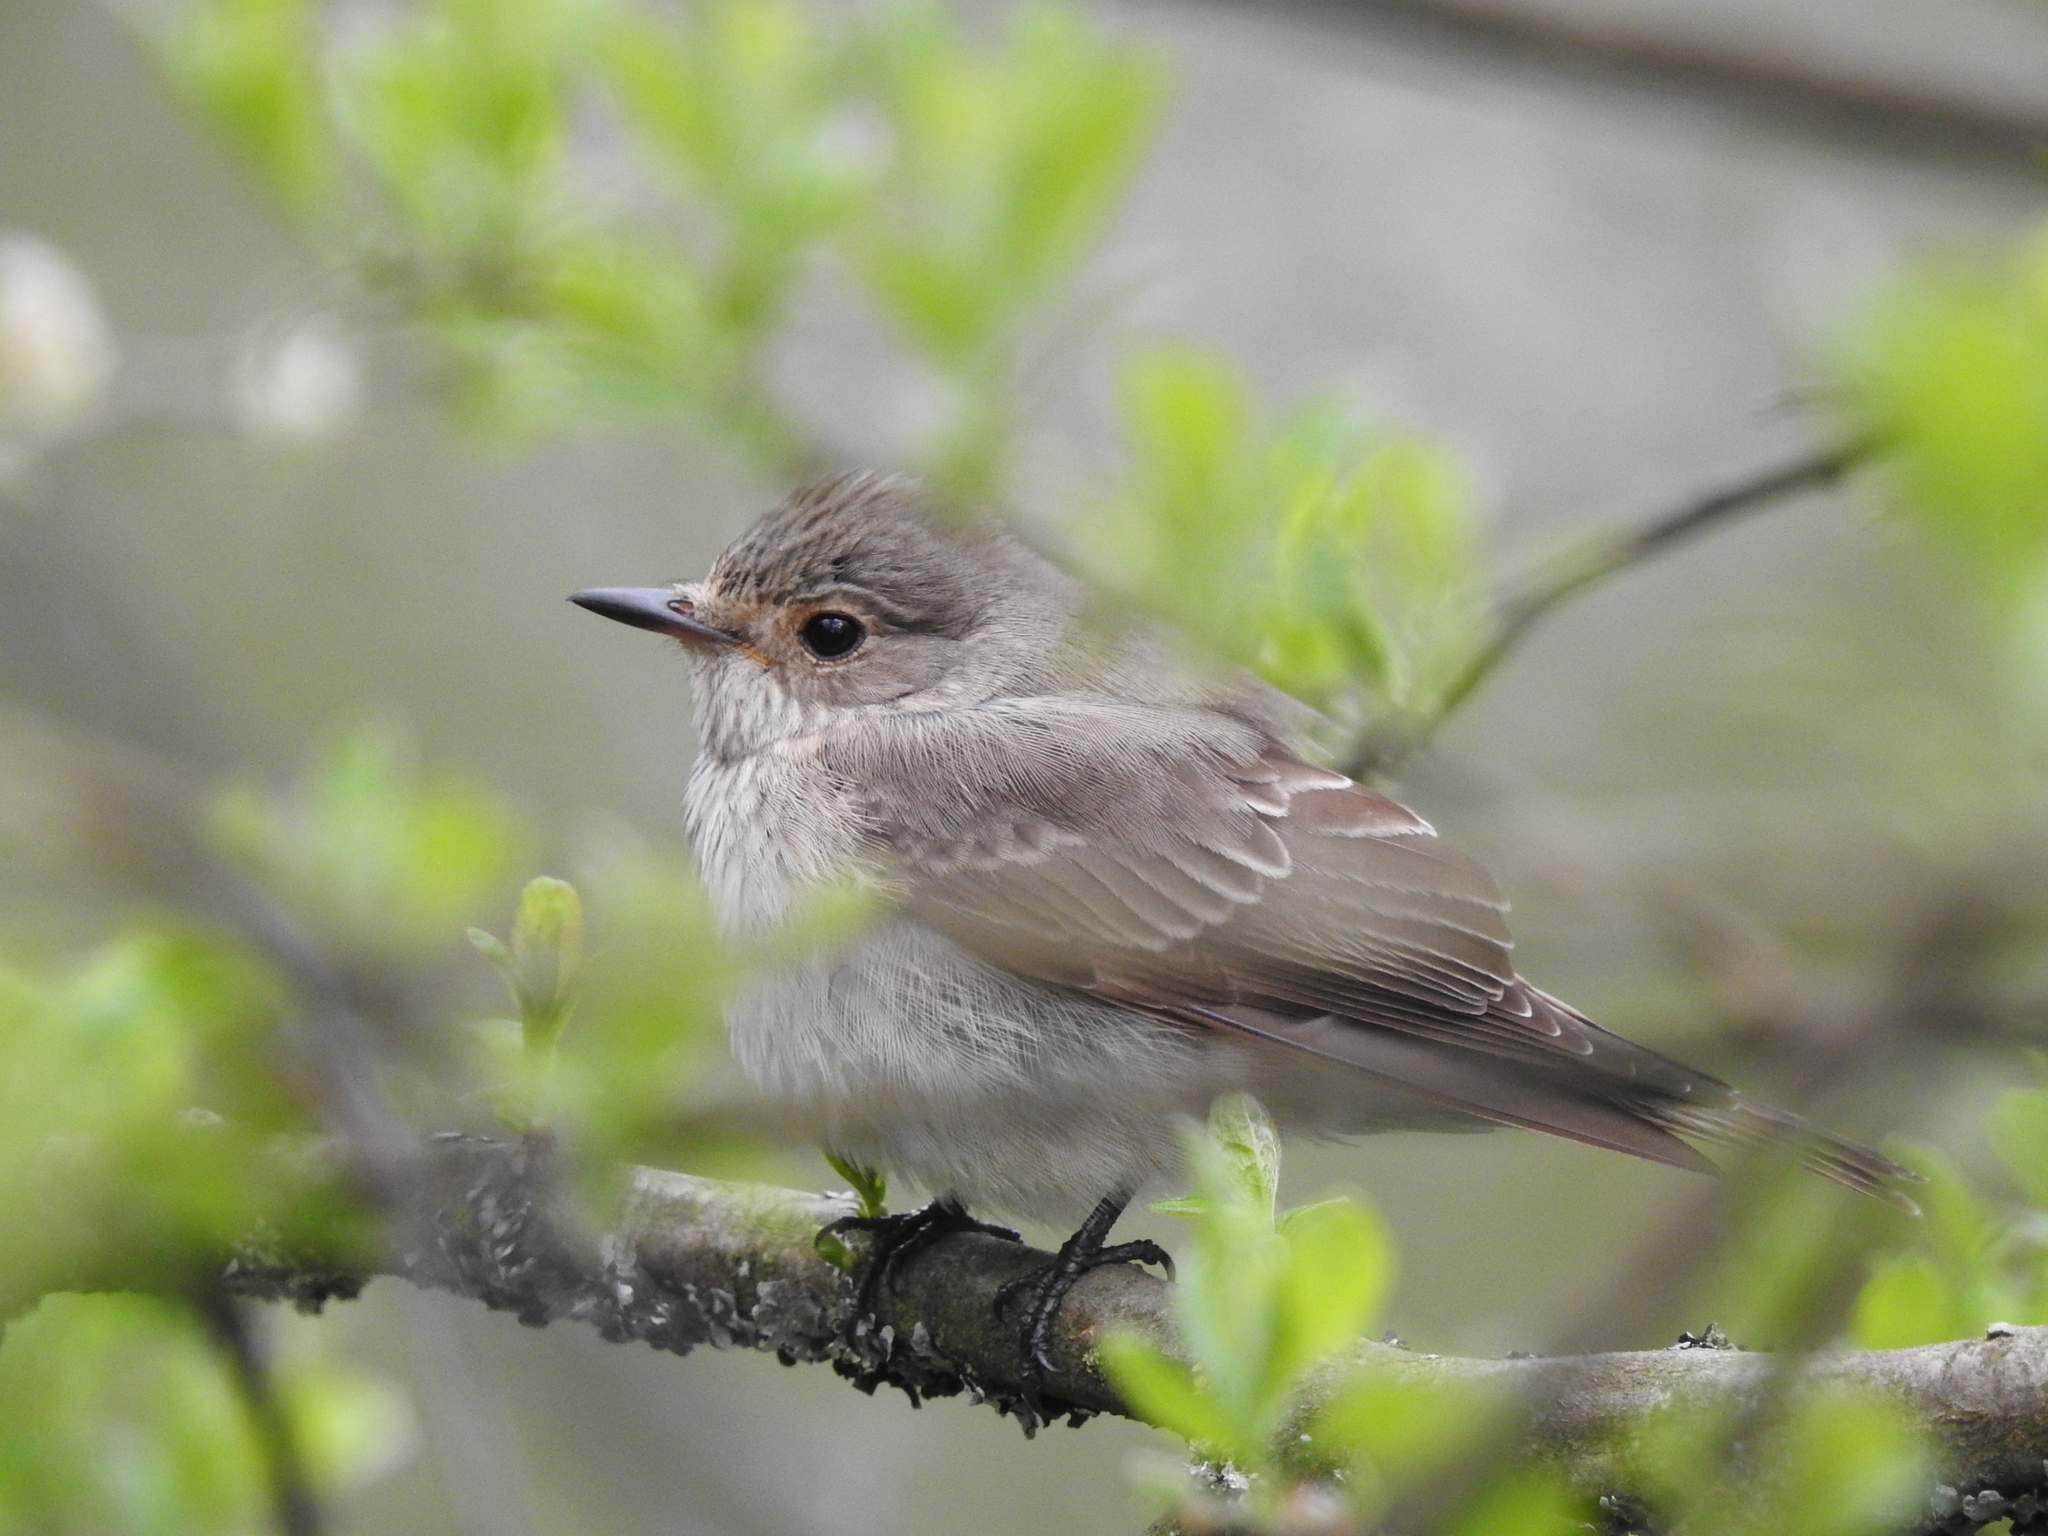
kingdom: Animalia
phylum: Chordata
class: Aves
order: Passeriformes
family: Muscicapidae
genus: Muscicapa
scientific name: Muscicapa striata
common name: Spotted flycatcher
